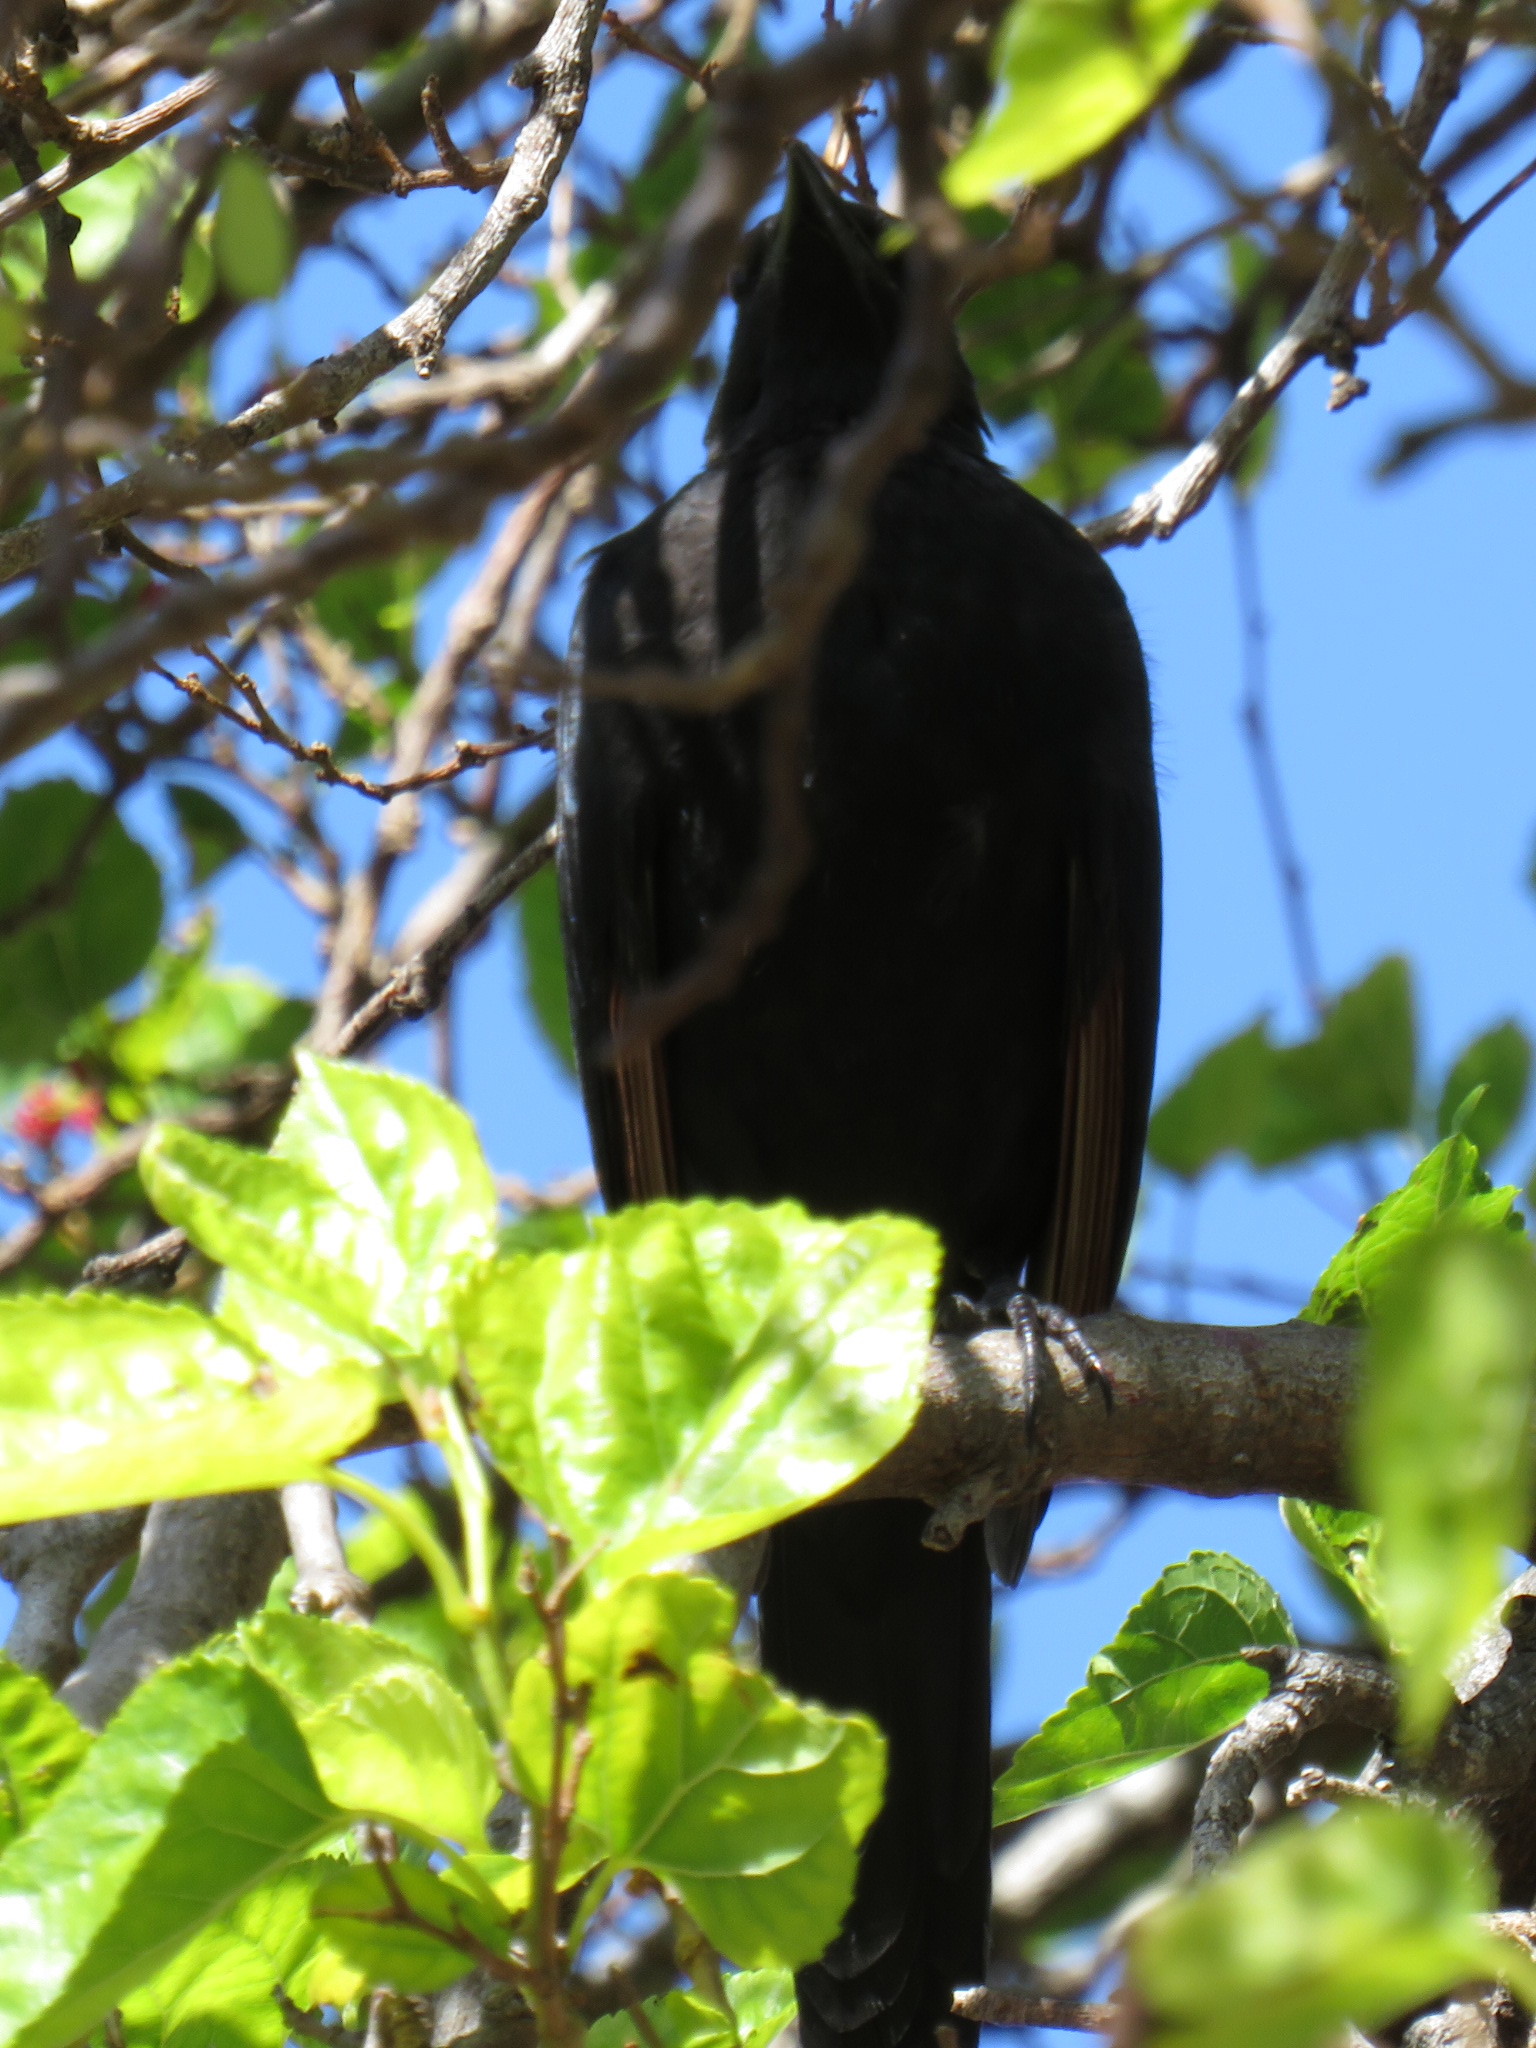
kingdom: Animalia
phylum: Chordata
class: Aves
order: Passeriformes
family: Sturnidae
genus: Onychognathus
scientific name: Onychognathus morio
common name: Red-winged starling
